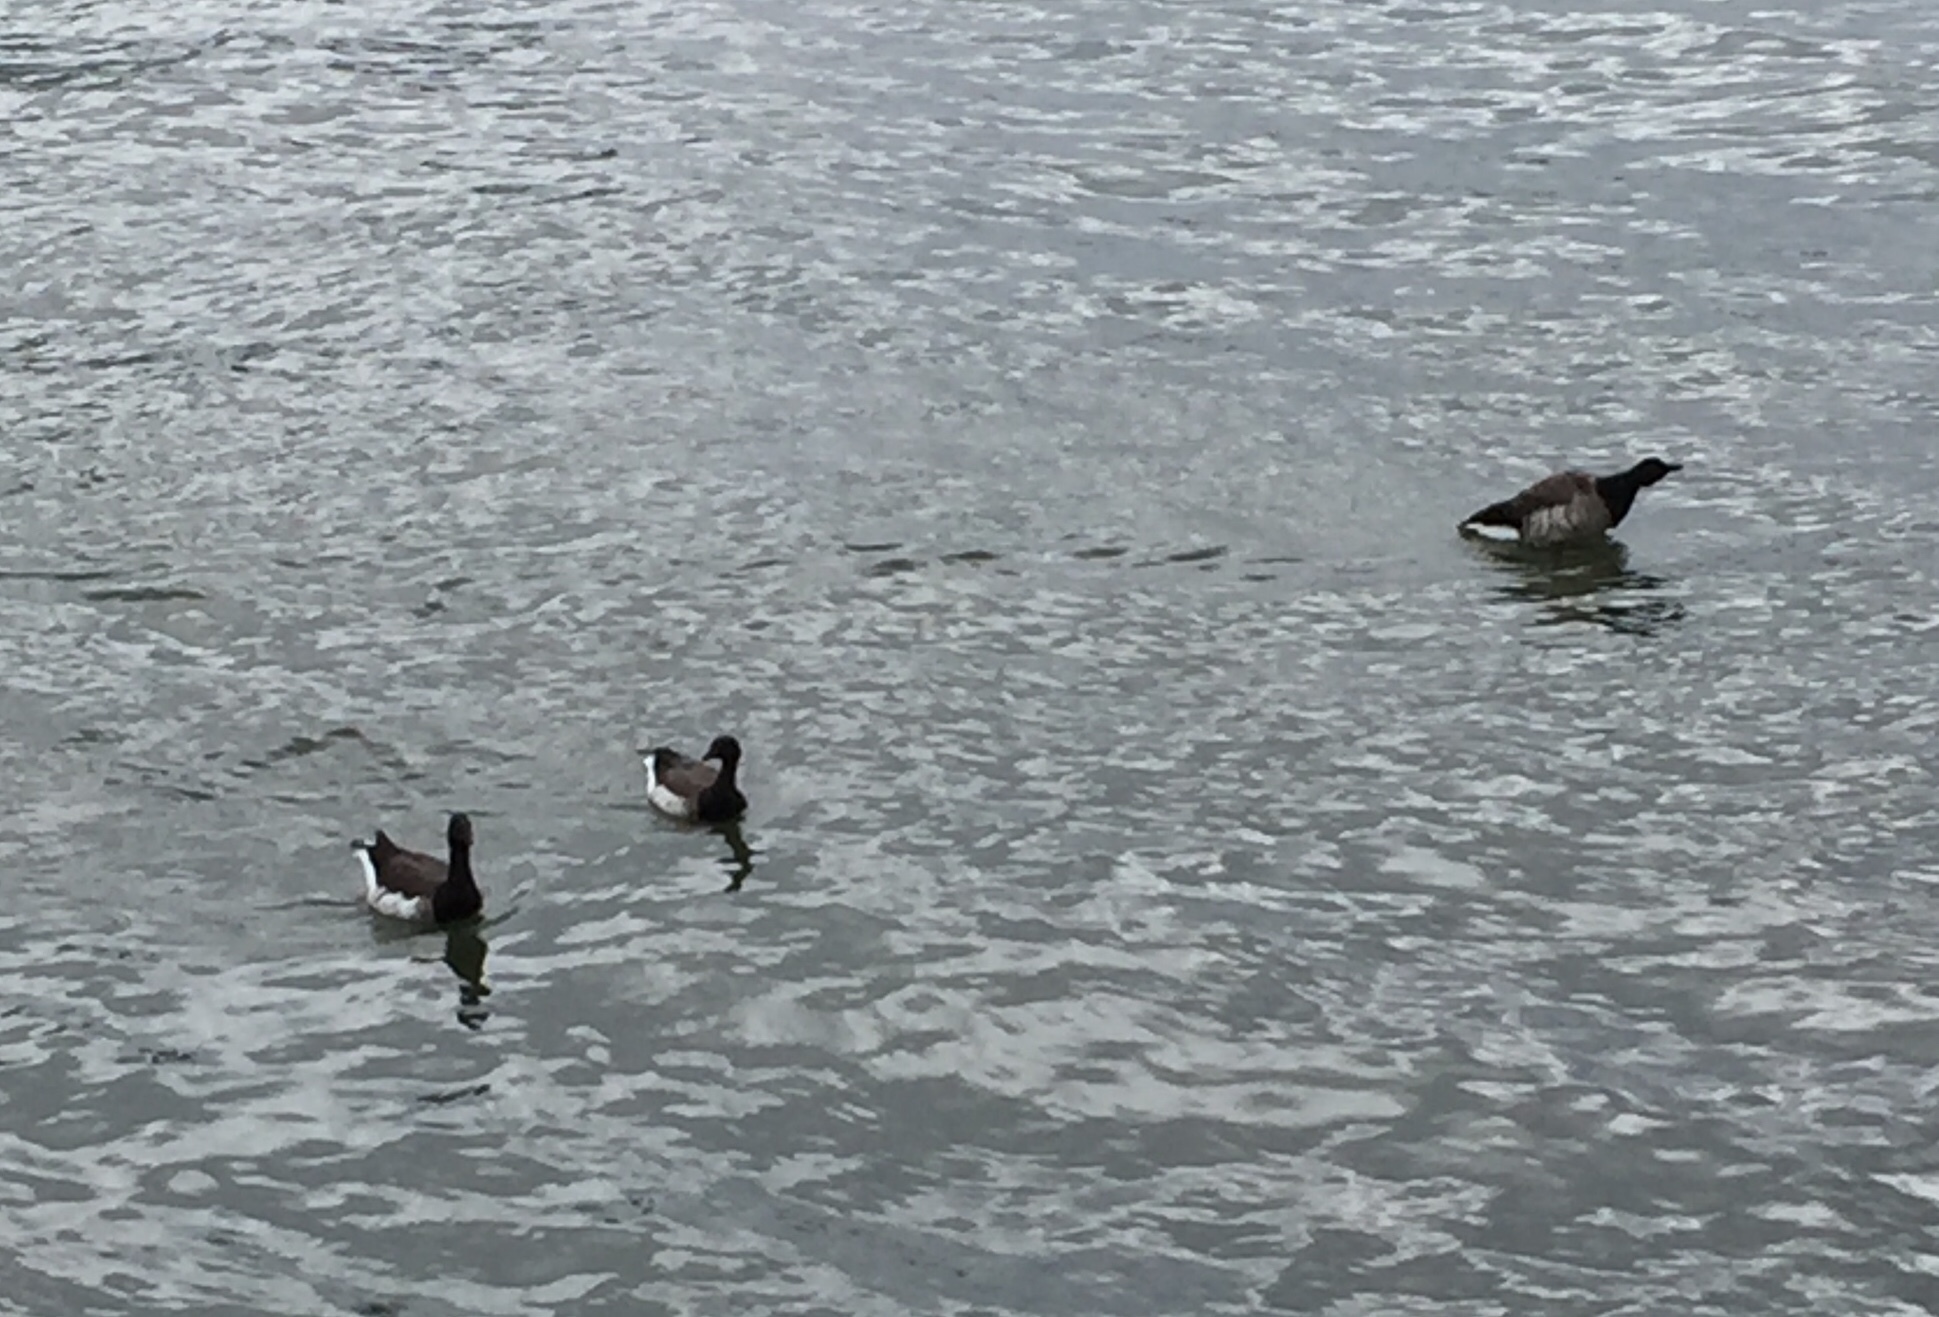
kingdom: Animalia
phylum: Chordata
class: Aves
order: Anseriformes
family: Anatidae
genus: Branta
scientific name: Branta bernicla
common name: Brant goose
